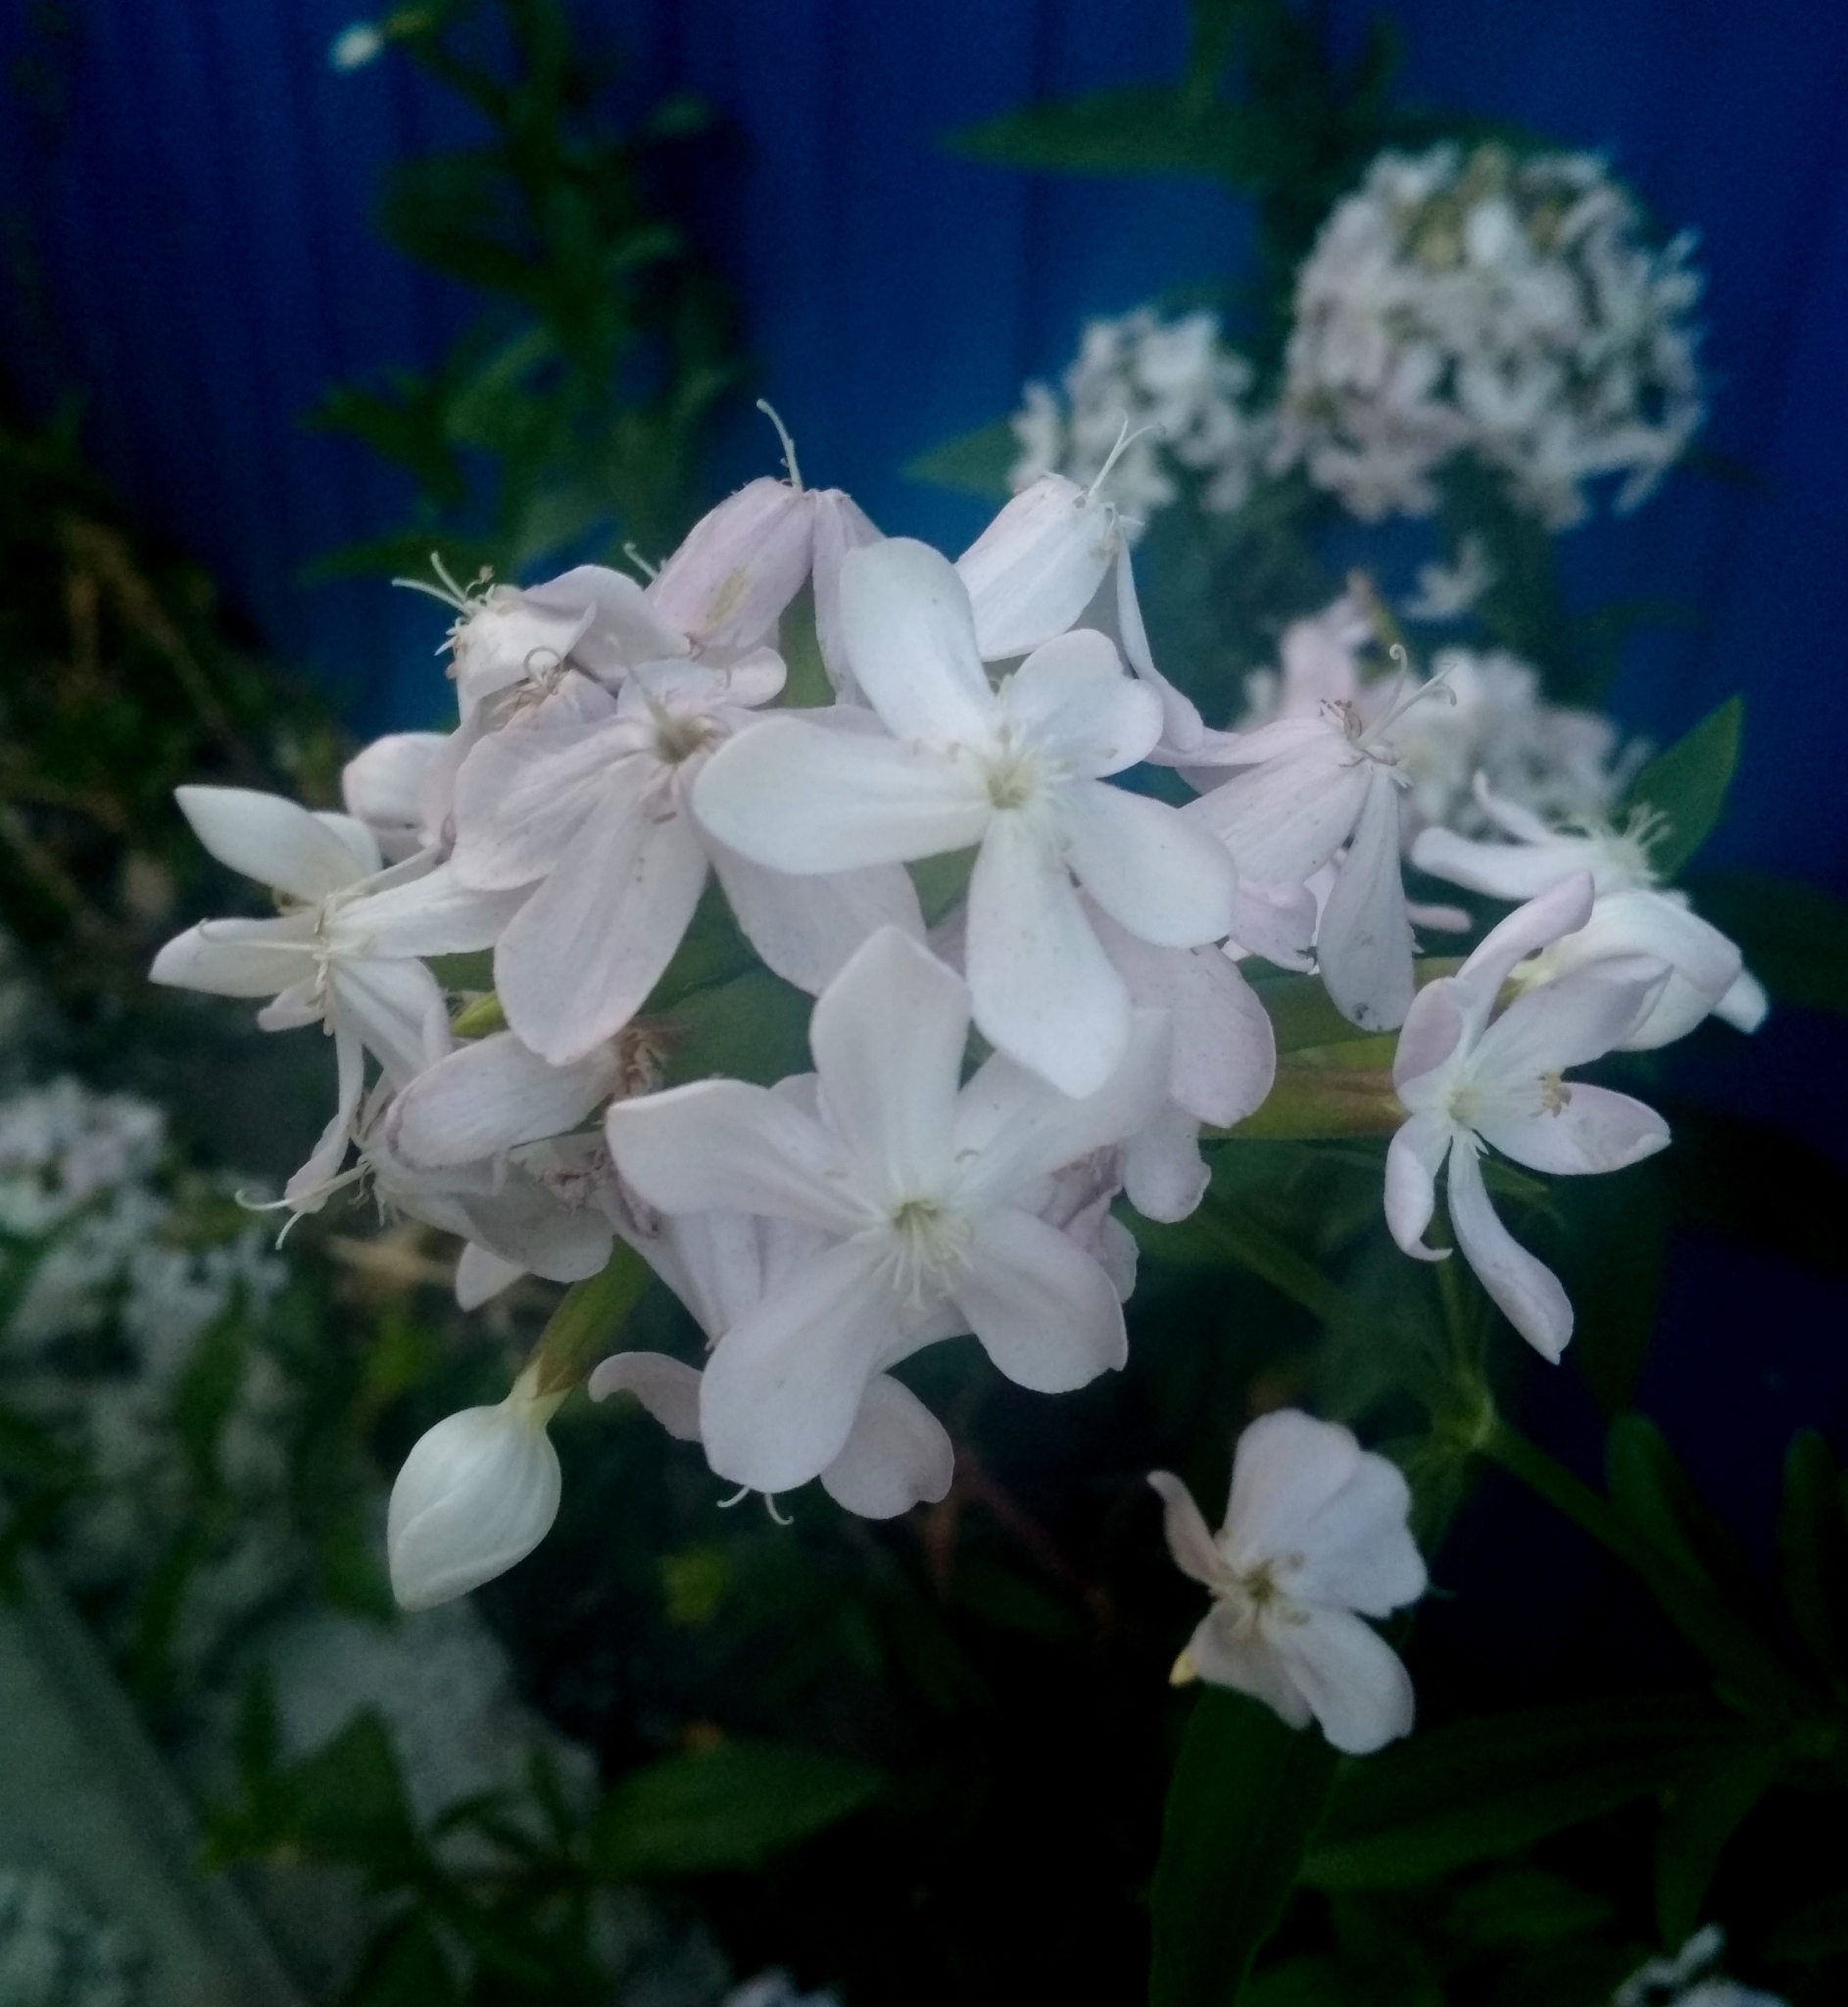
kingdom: Plantae
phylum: Tracheophyta
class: Magnoliopsida
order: Caryophyllales
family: Caryophyllaceae
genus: Saponaria
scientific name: Saponaria officinalis
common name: Soapwort
